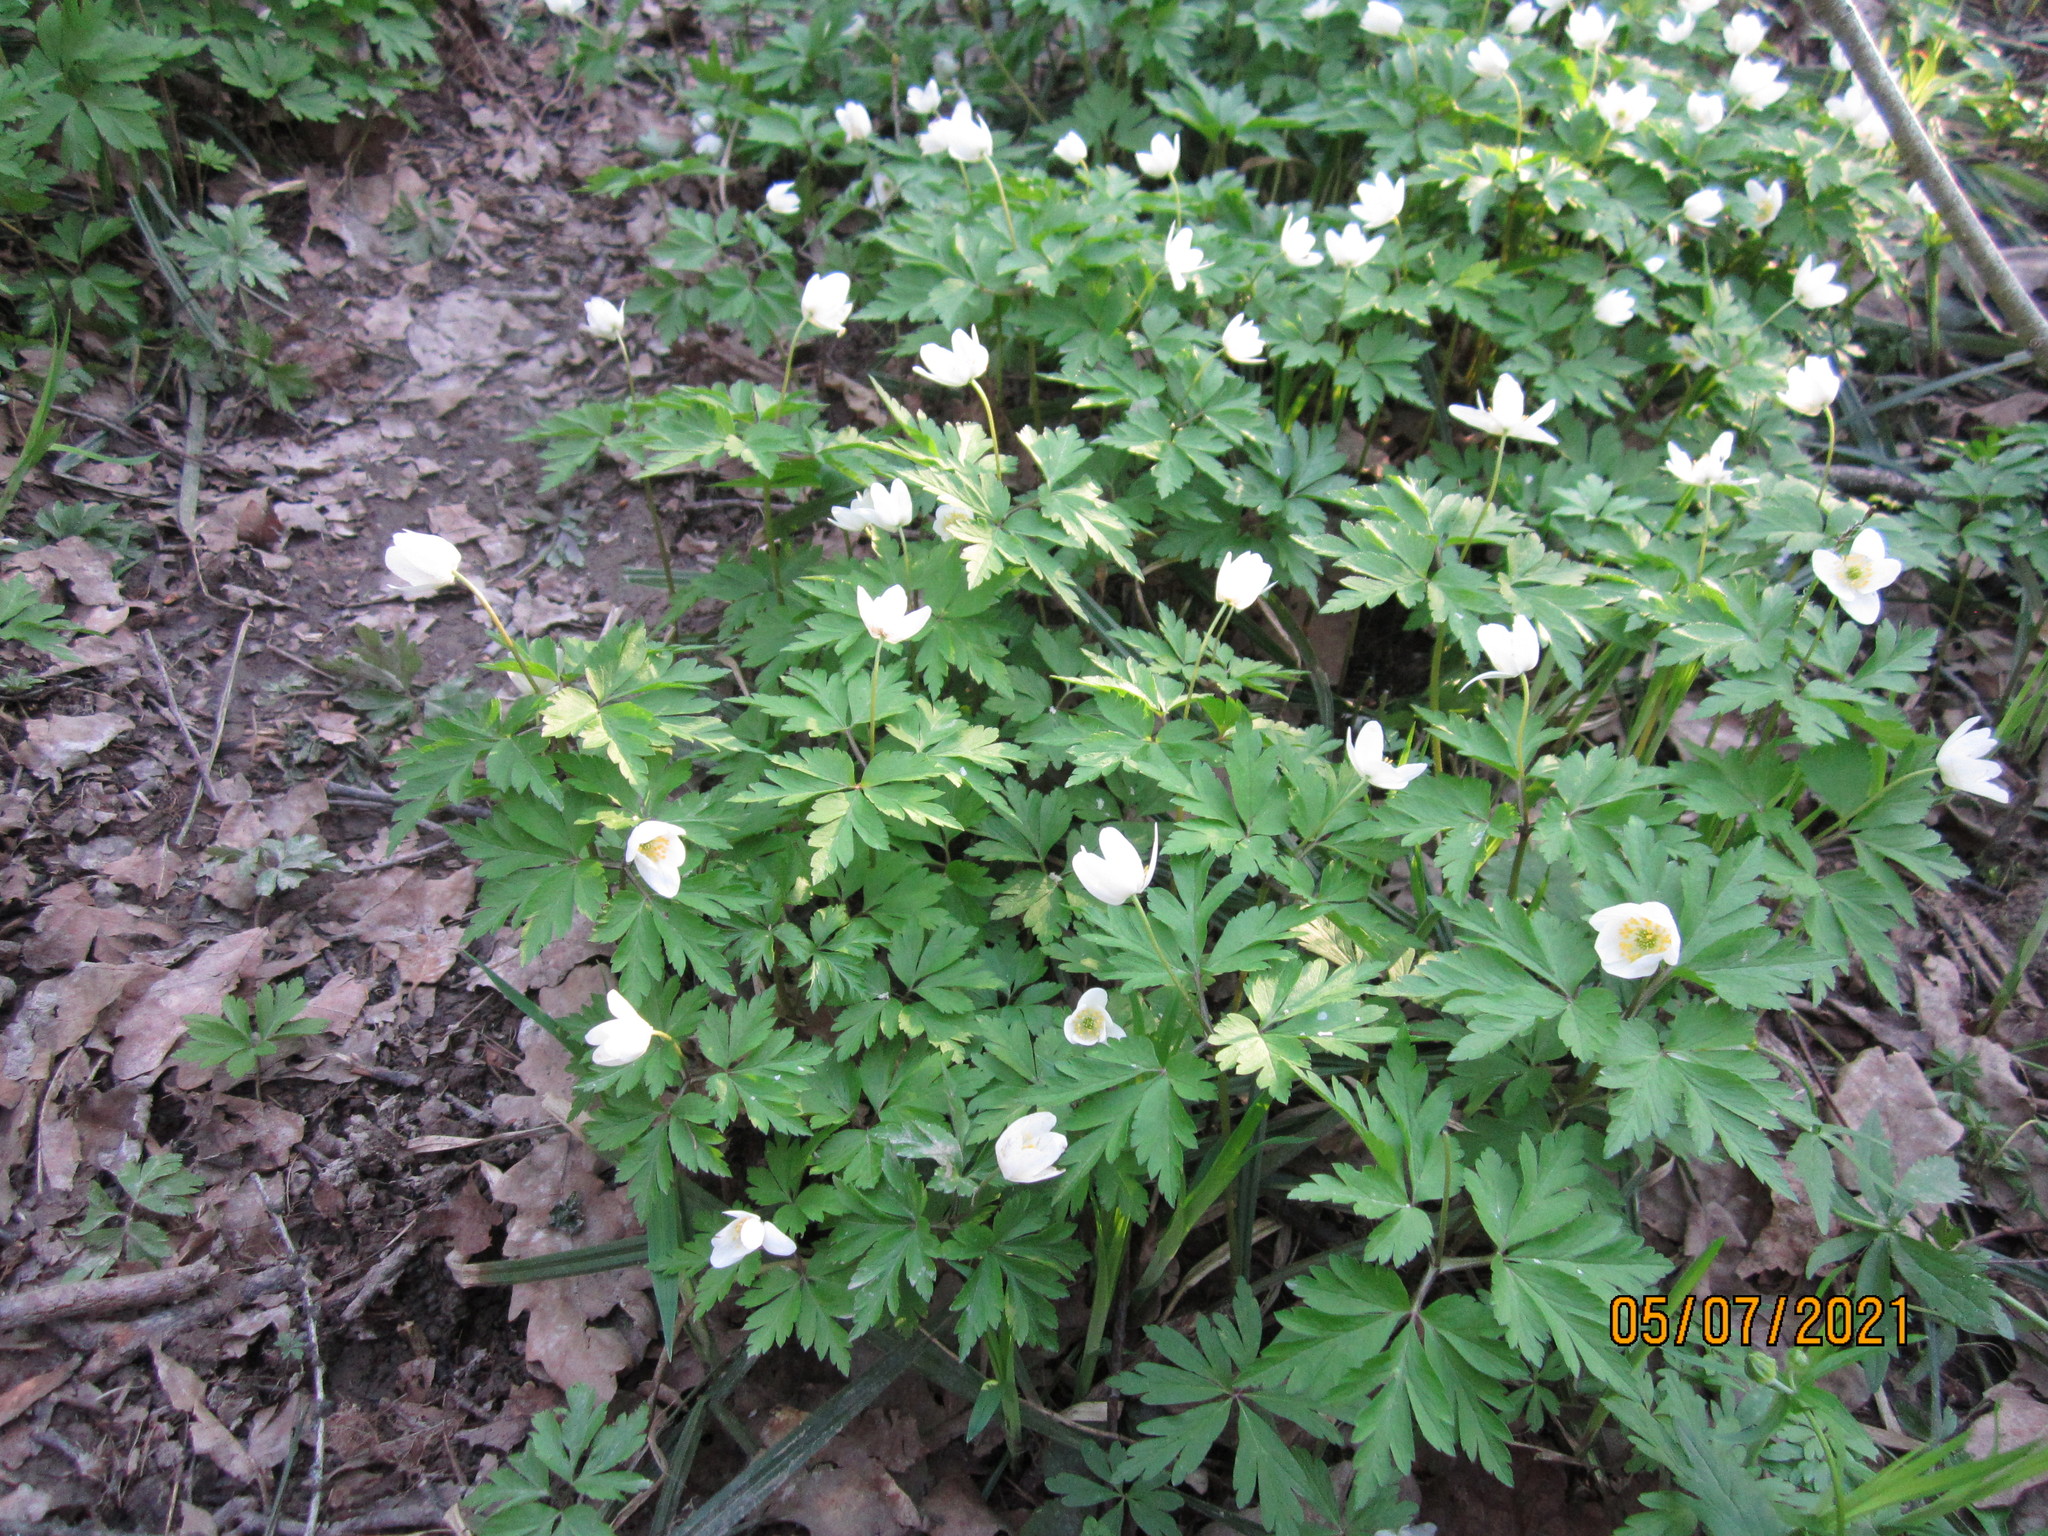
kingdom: Plantae
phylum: Tracheophyta
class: Magnoliopsida
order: Ranunculales
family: Ranunculaceae
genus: Anemone
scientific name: Anemone nemorosa
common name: Wood anemone
